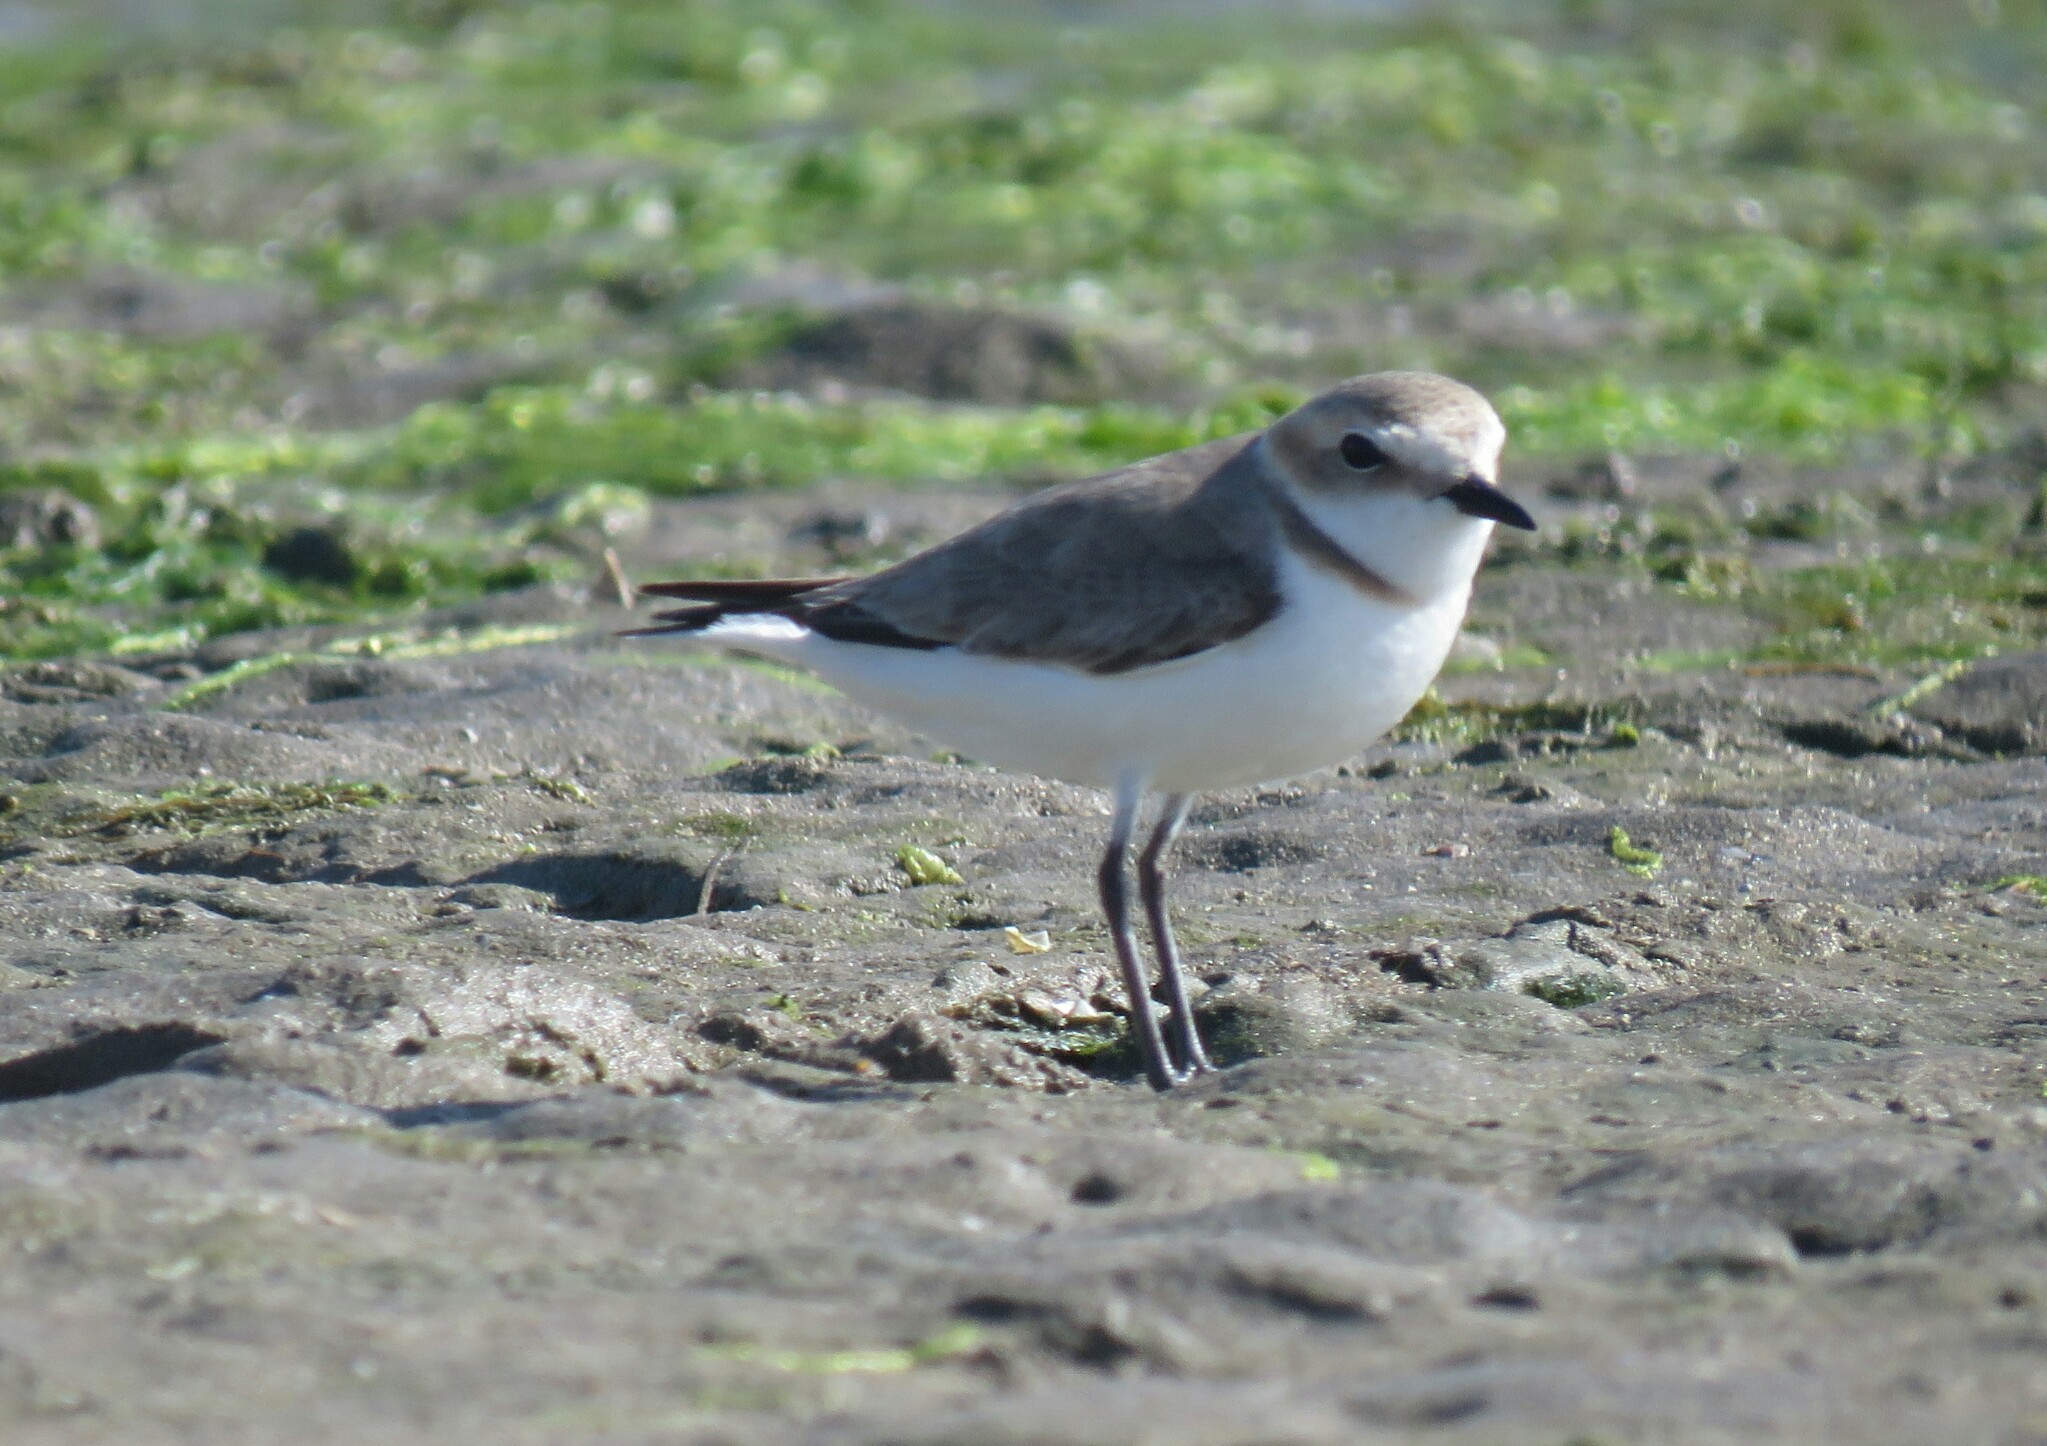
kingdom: Animalia
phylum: Chordata
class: Aves
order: Charadriiformes
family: Charadriidae
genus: Charadrius
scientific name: Charadrius alexandrinus
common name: Kentish plover
